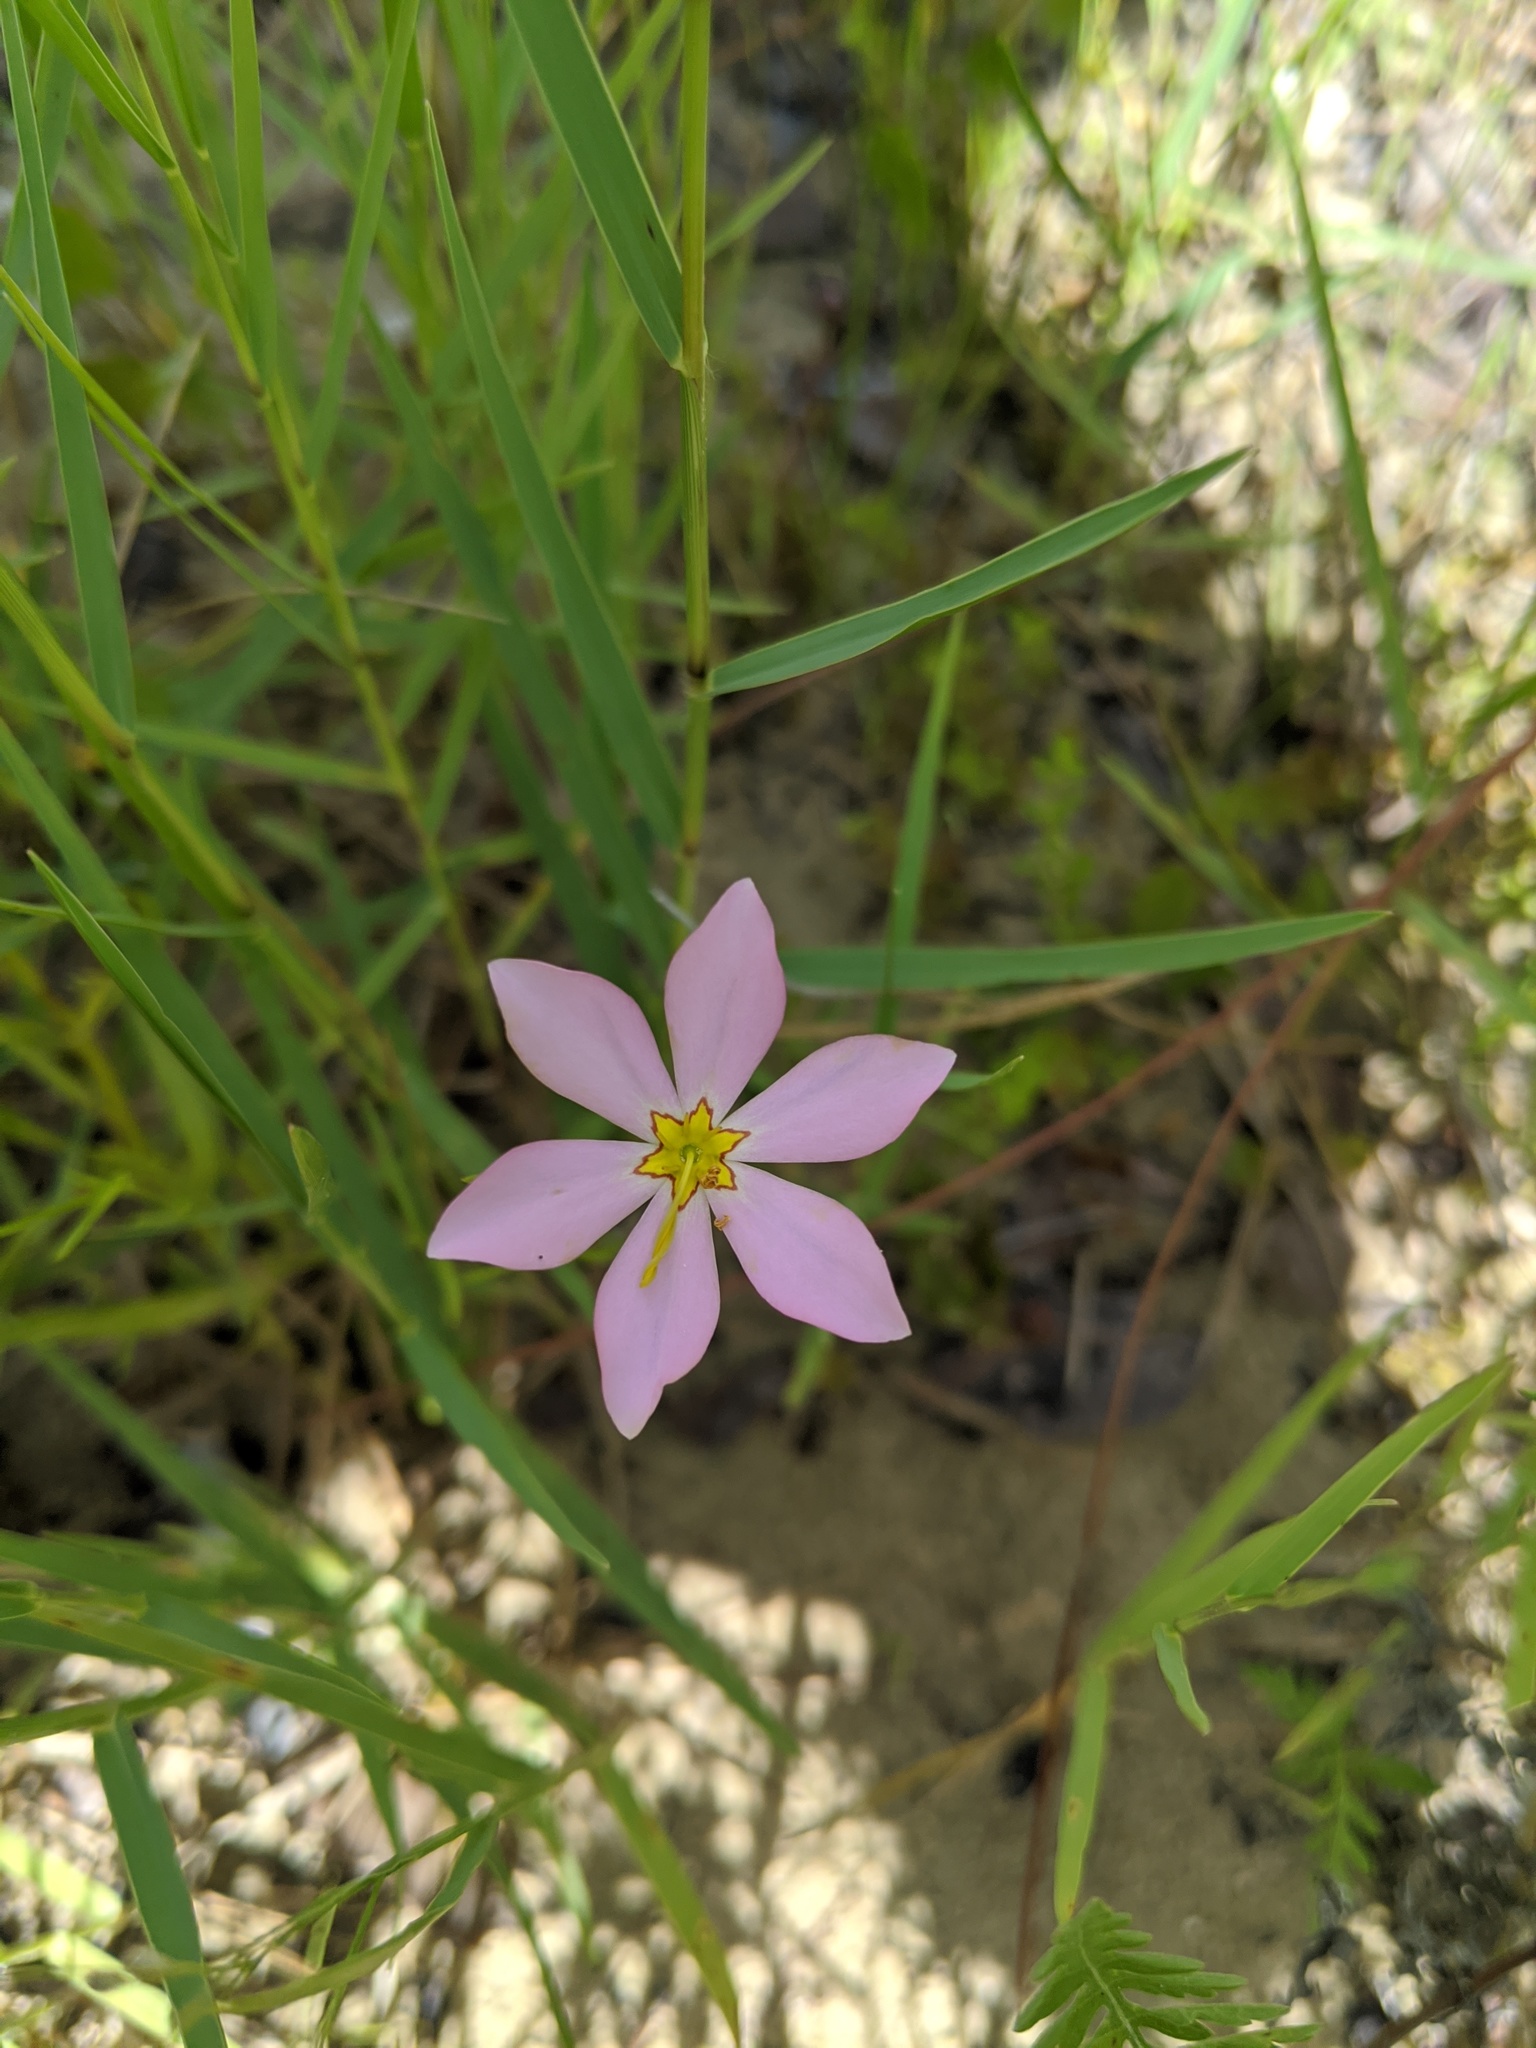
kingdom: Plantae
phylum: Tracheophyta
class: Magnoliopsida
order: Gentianales
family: Gentianaceae
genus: Sabatia
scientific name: Sabatia stellaris
